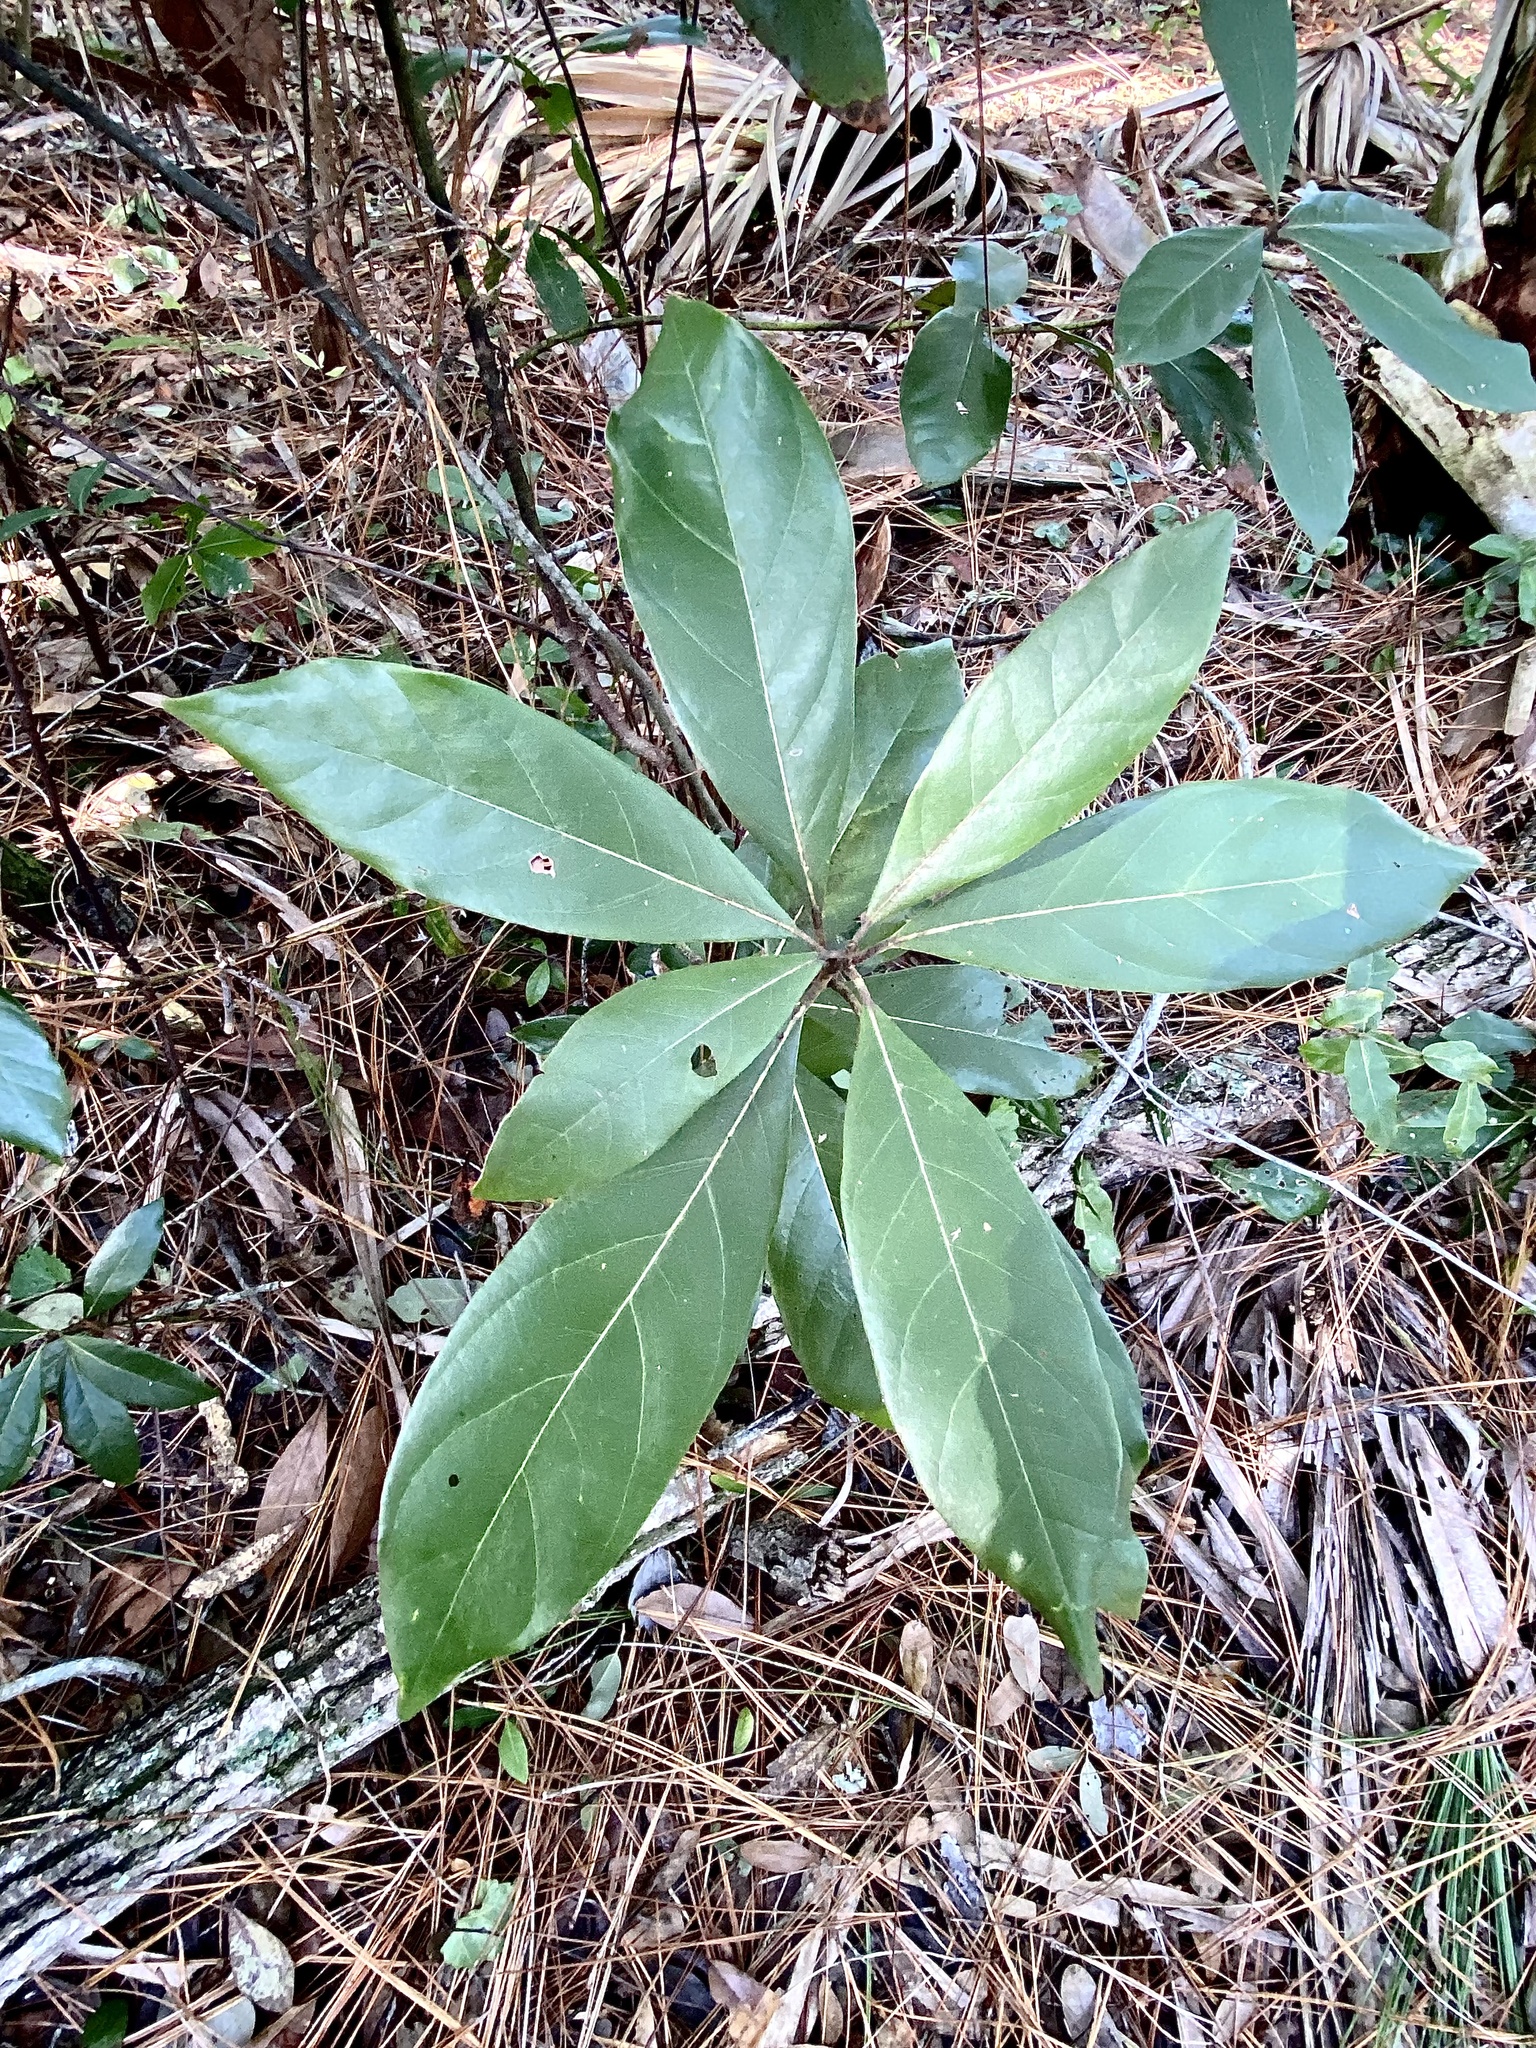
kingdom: Plantae
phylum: Tracheophyta
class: Magnoliopsida
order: Laurales
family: Lauraceae
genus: Persea
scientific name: Persea palustris
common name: Swampbay
